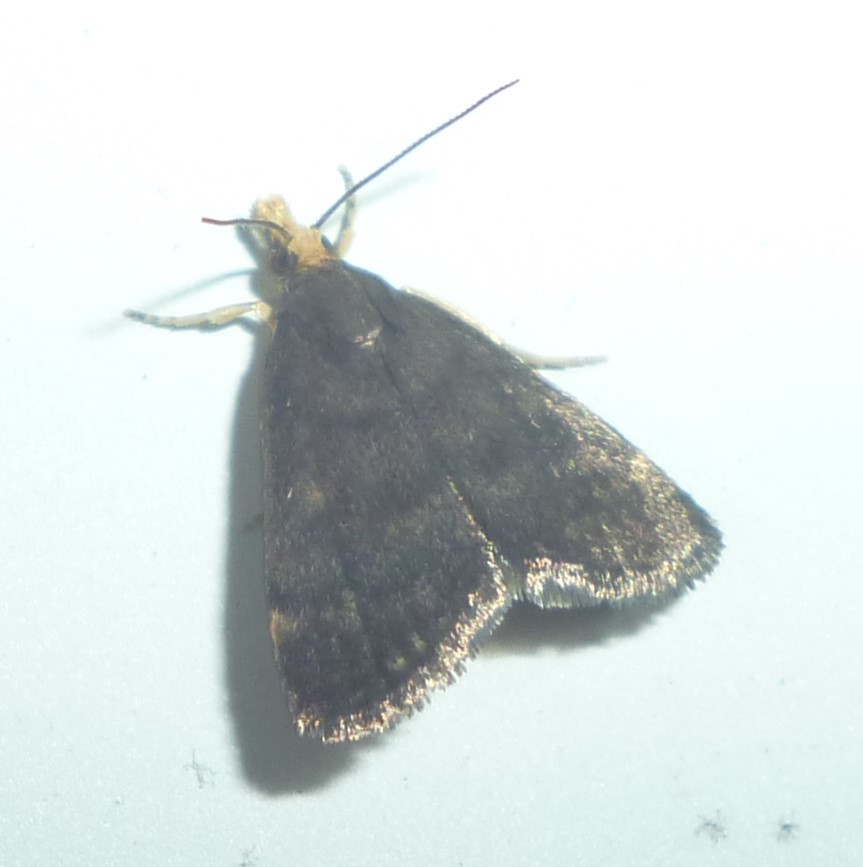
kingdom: Animalia
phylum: Arthropoda
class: Insecta
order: Lepidoptera
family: Crambidae
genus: Pyrausta
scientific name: Pyrausta merrickalis
